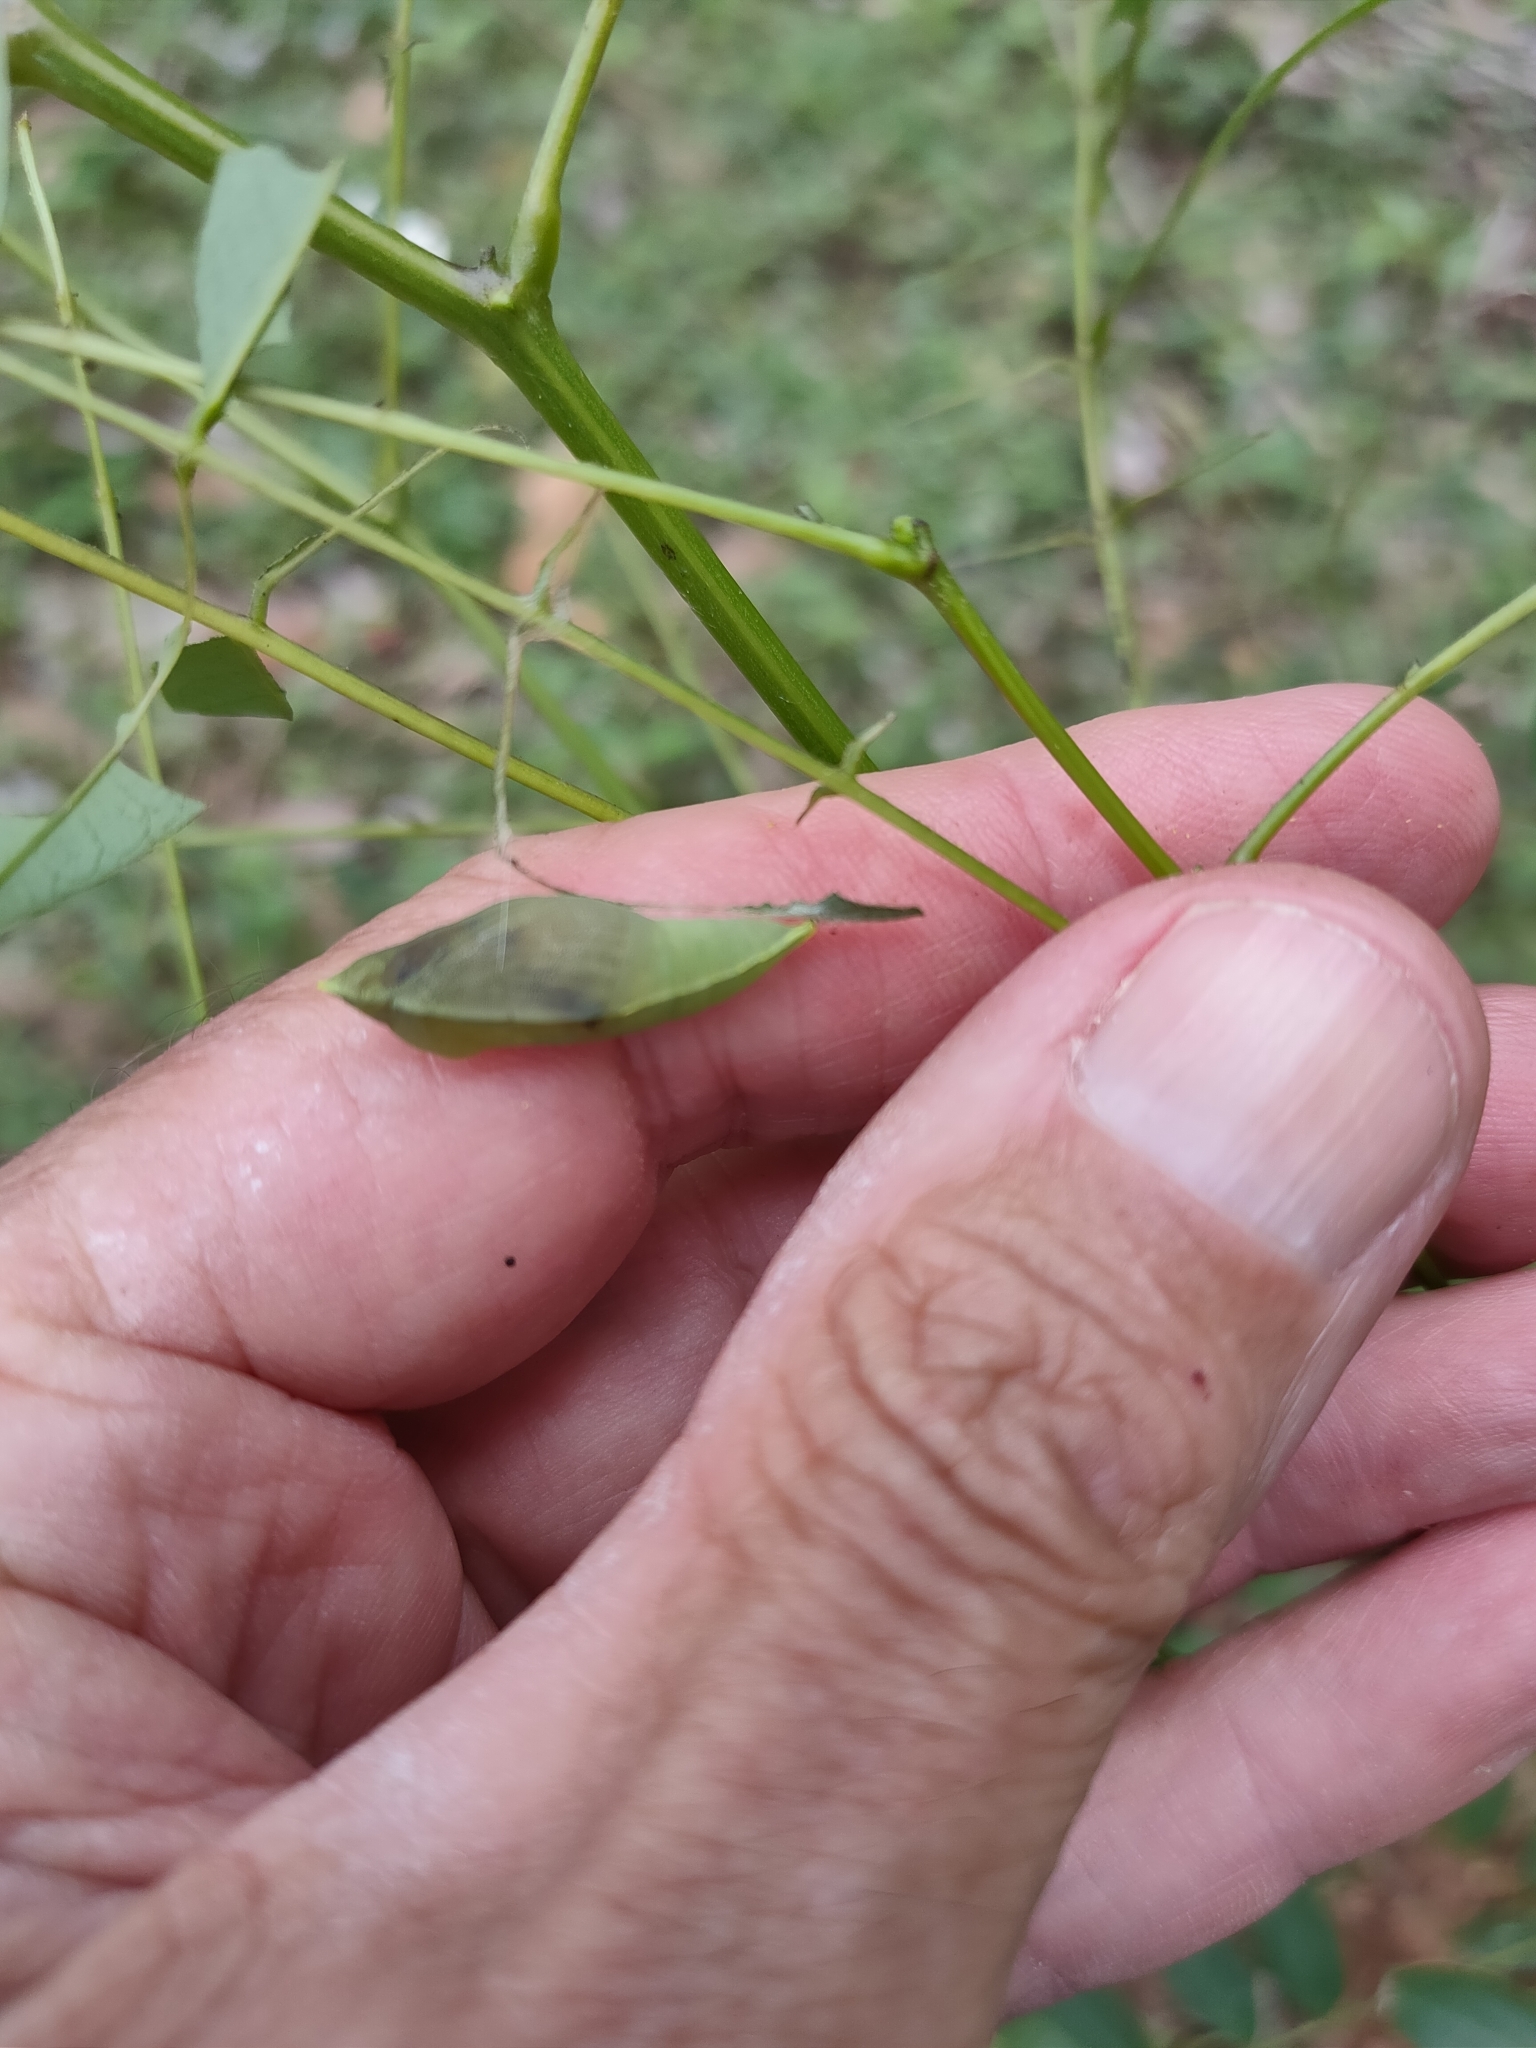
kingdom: Animalia
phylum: Arthropoda
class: Insecta
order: Lepidoptera
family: Pieridae
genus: Catopsilia
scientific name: Catopsilia pyranthe
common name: Mottled emigrant
